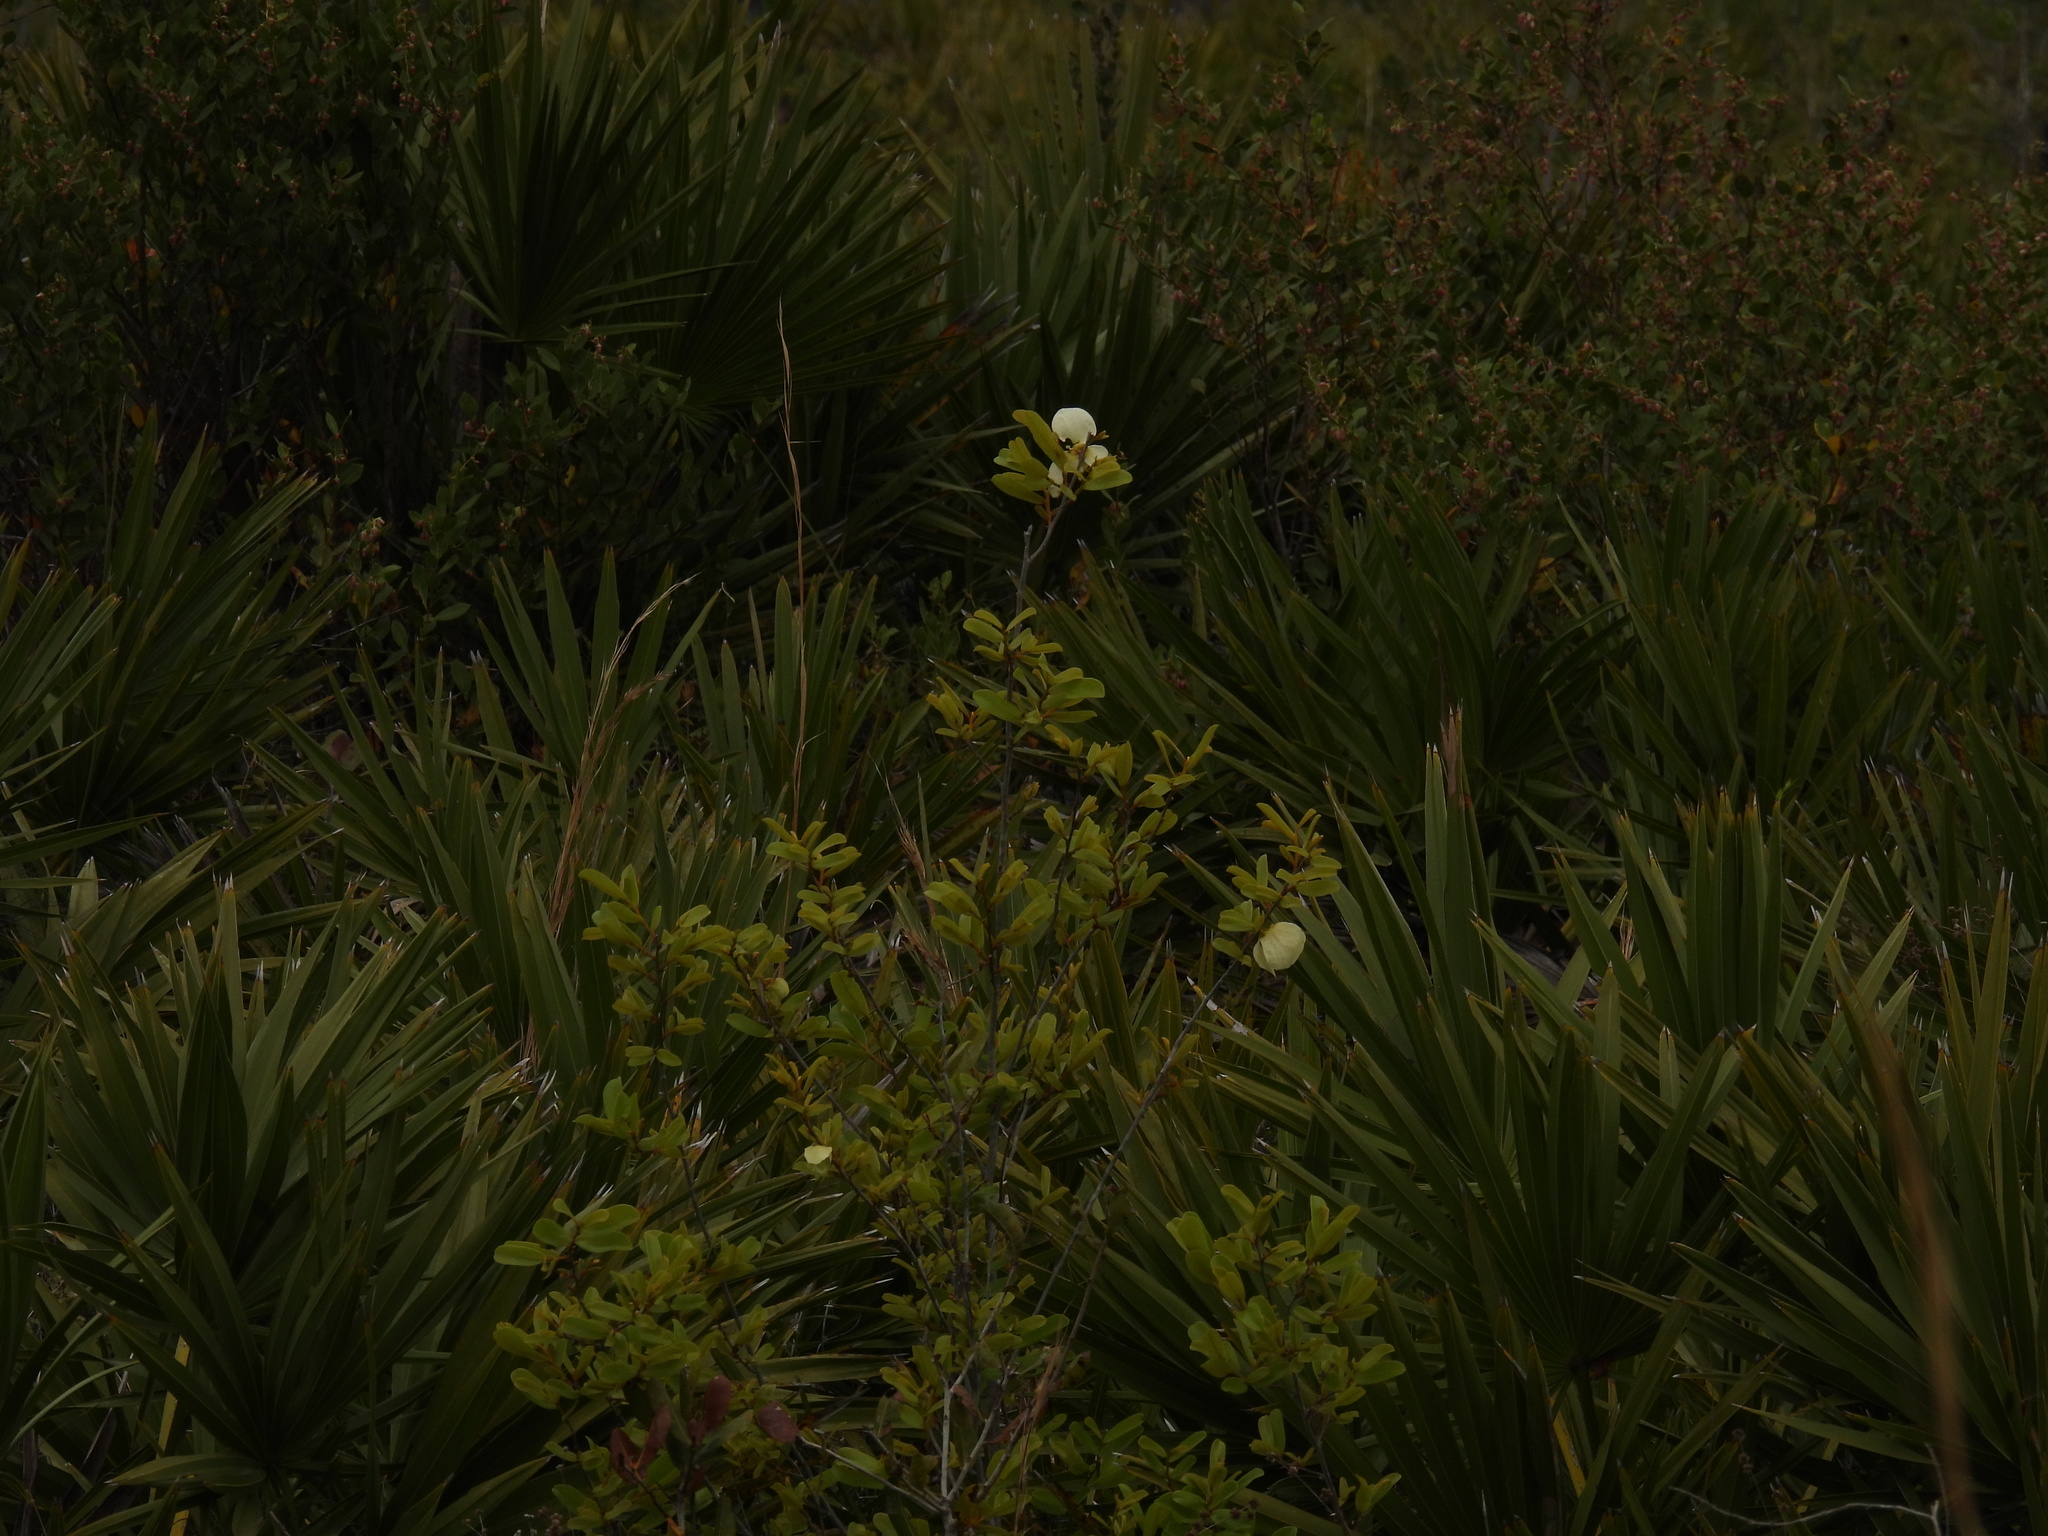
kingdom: Plantae
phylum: Tracheophyta
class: Magnoliopsida
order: Magnoliales
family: Annonaceae
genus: Asimina
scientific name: Asimina obovata
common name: Flag pawpaw
